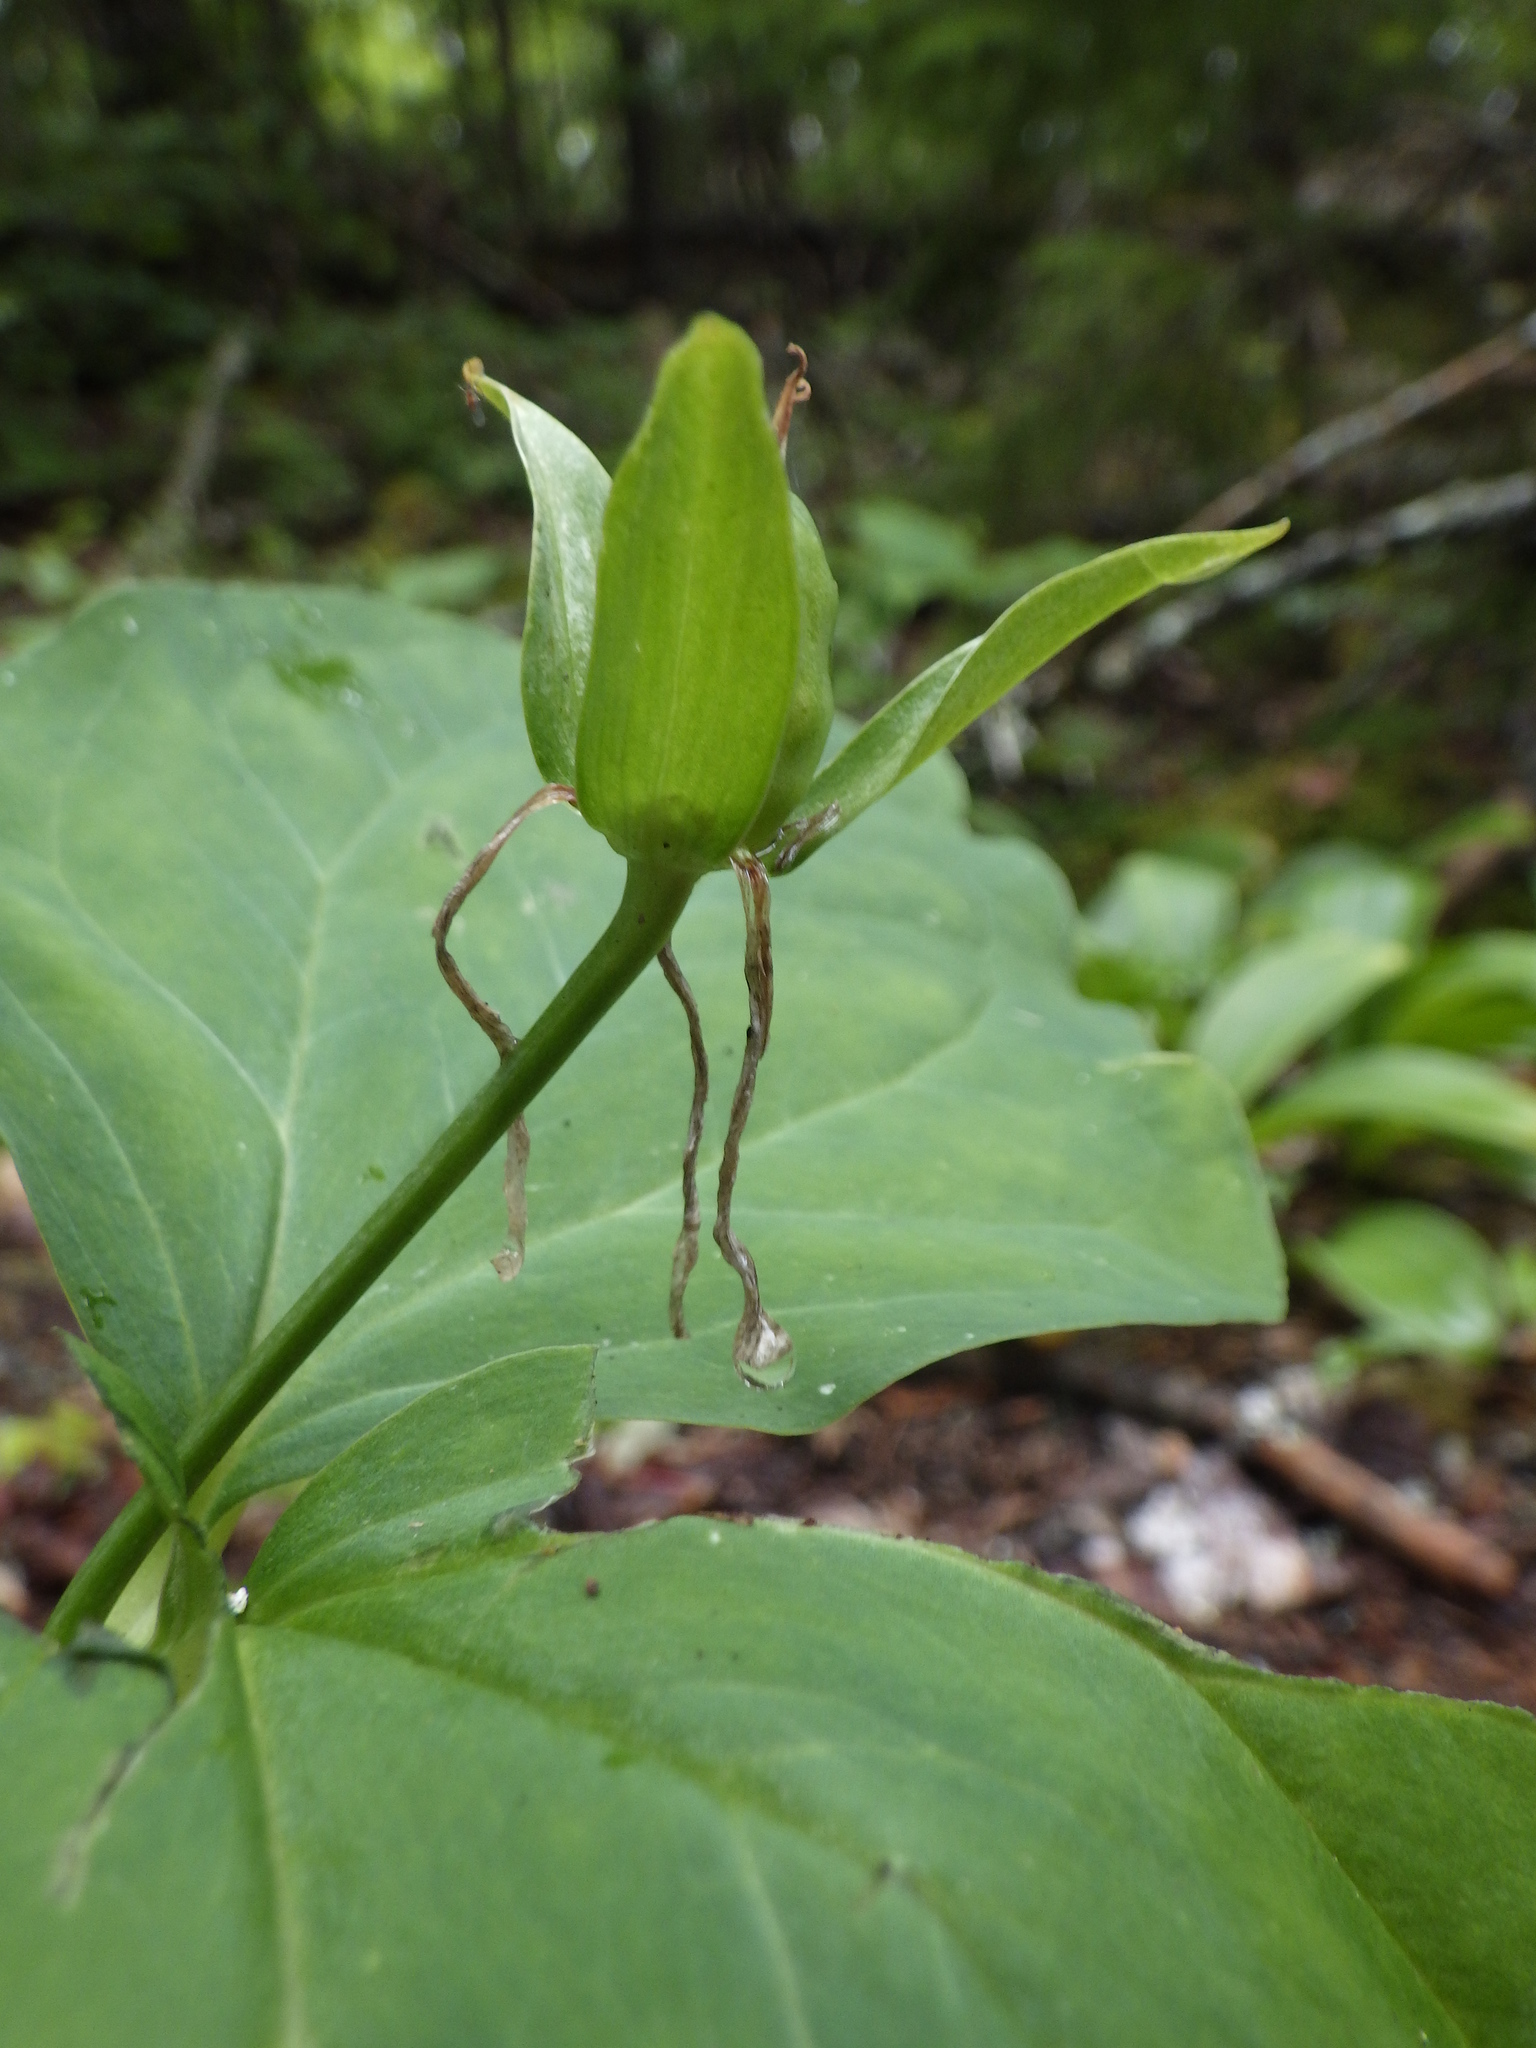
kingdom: Plantae
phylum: Tracheophyta
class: Liliopsida
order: Liliales
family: Melanthiaceae
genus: Trillium
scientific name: Trillium undulatum
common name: Paint trillium
